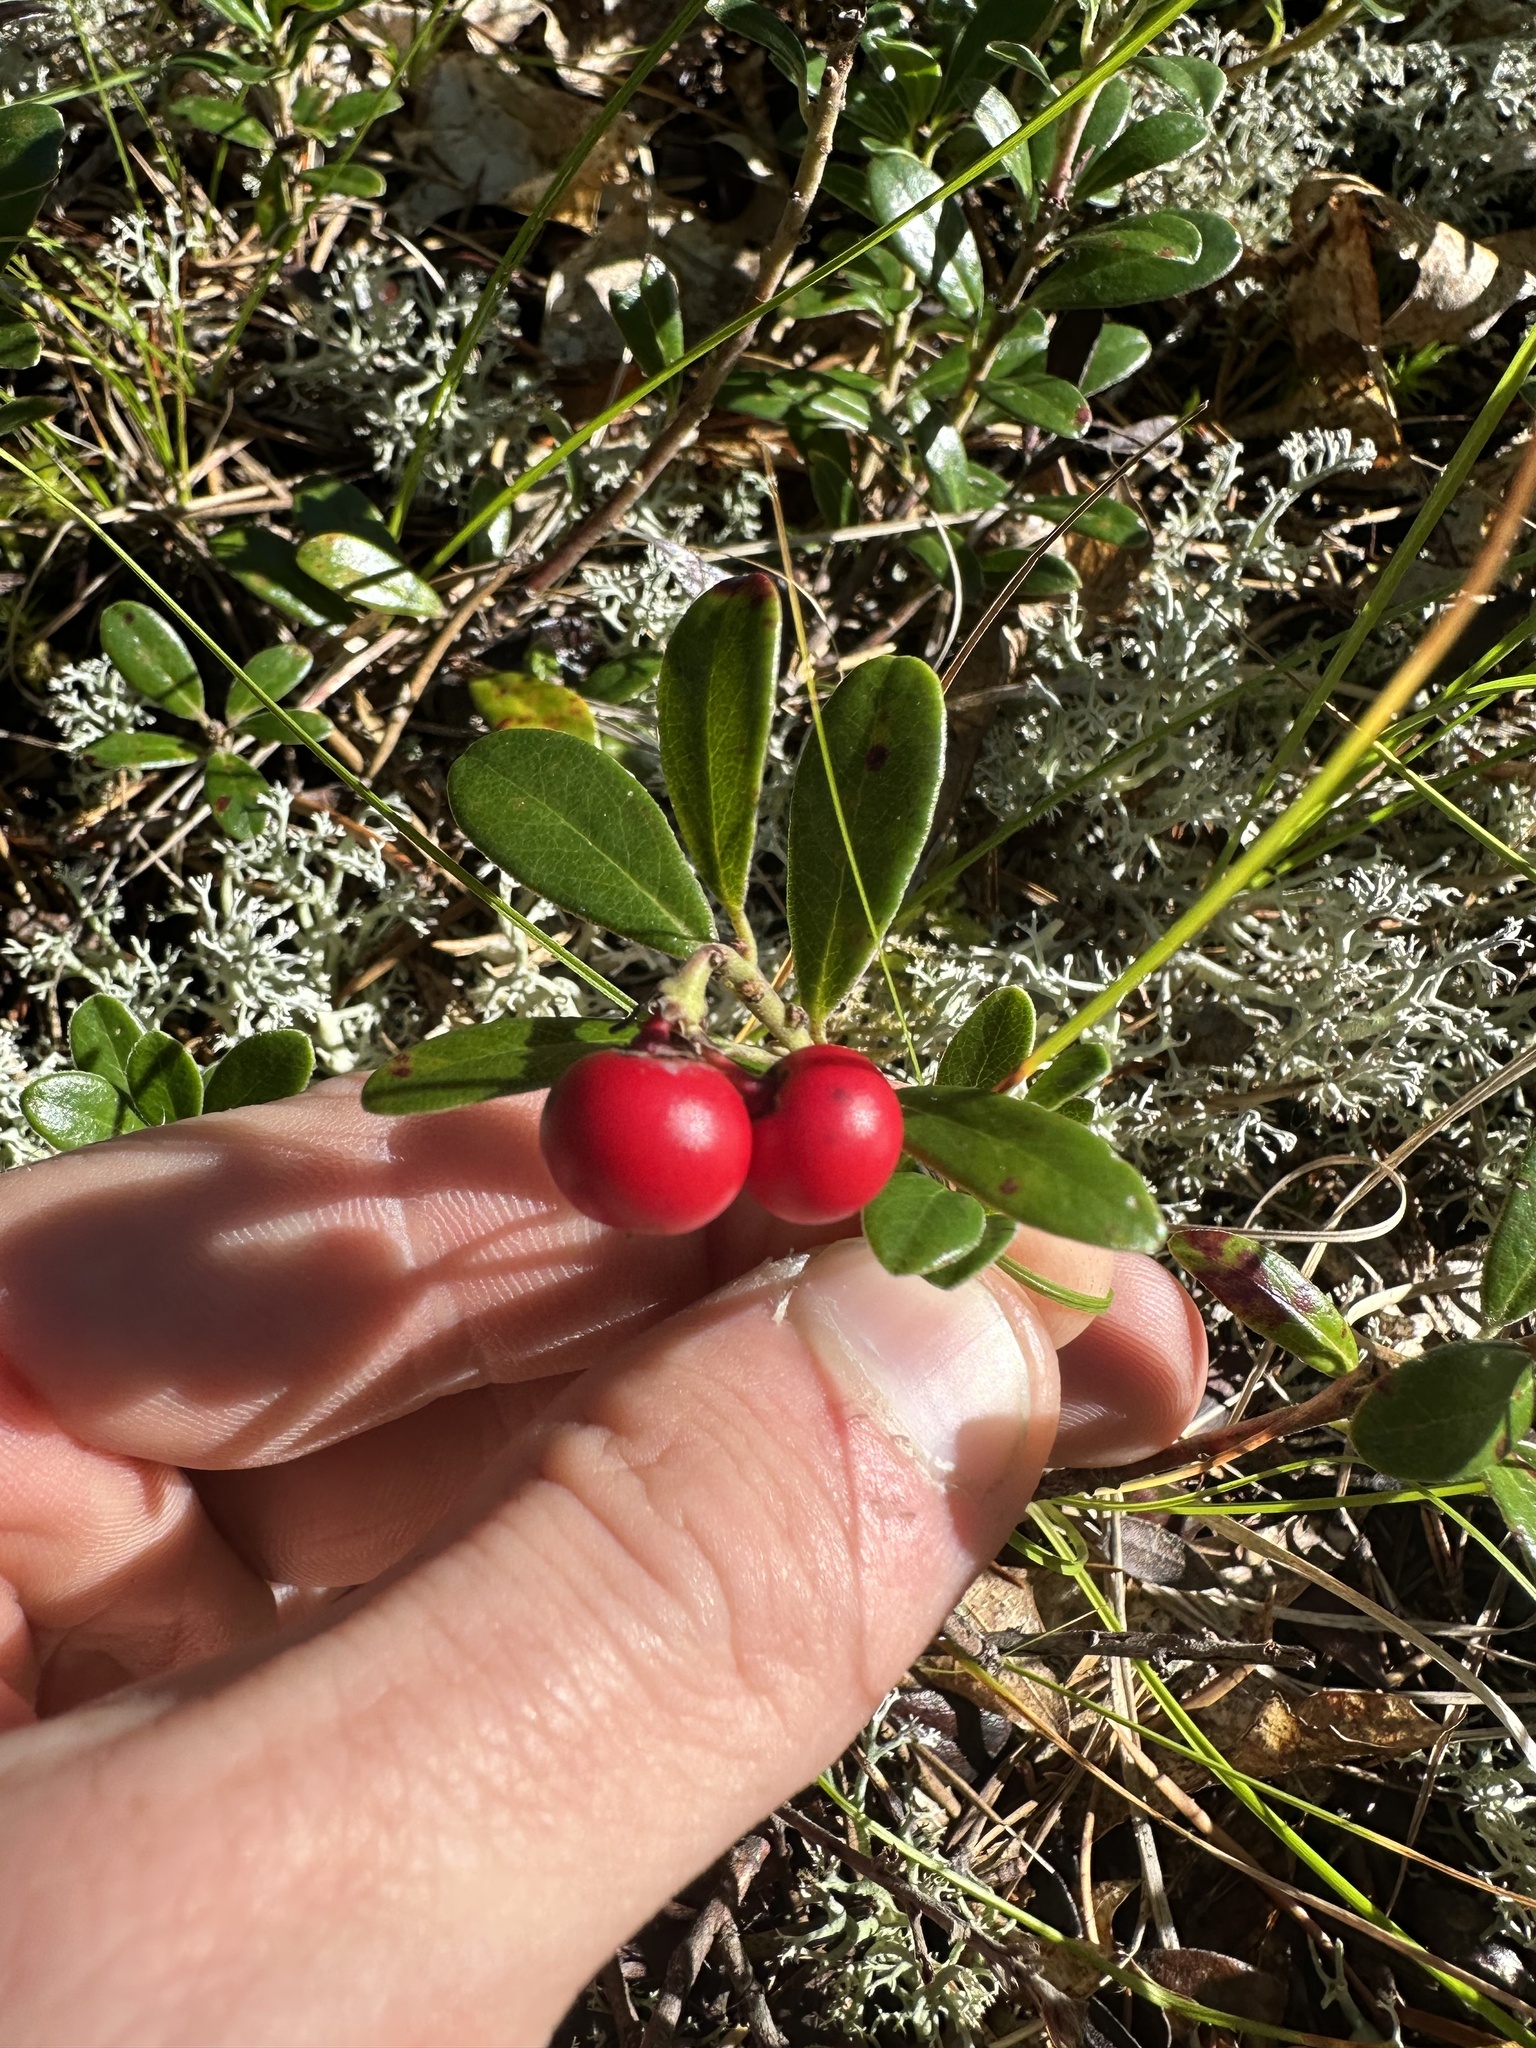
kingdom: Plantae
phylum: Tracheophyta
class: Magnoliopsida
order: Ericales
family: Ericaceae
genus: Arctostaphylos
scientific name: Arctostaphylos uva-ursi
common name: Bearberry
